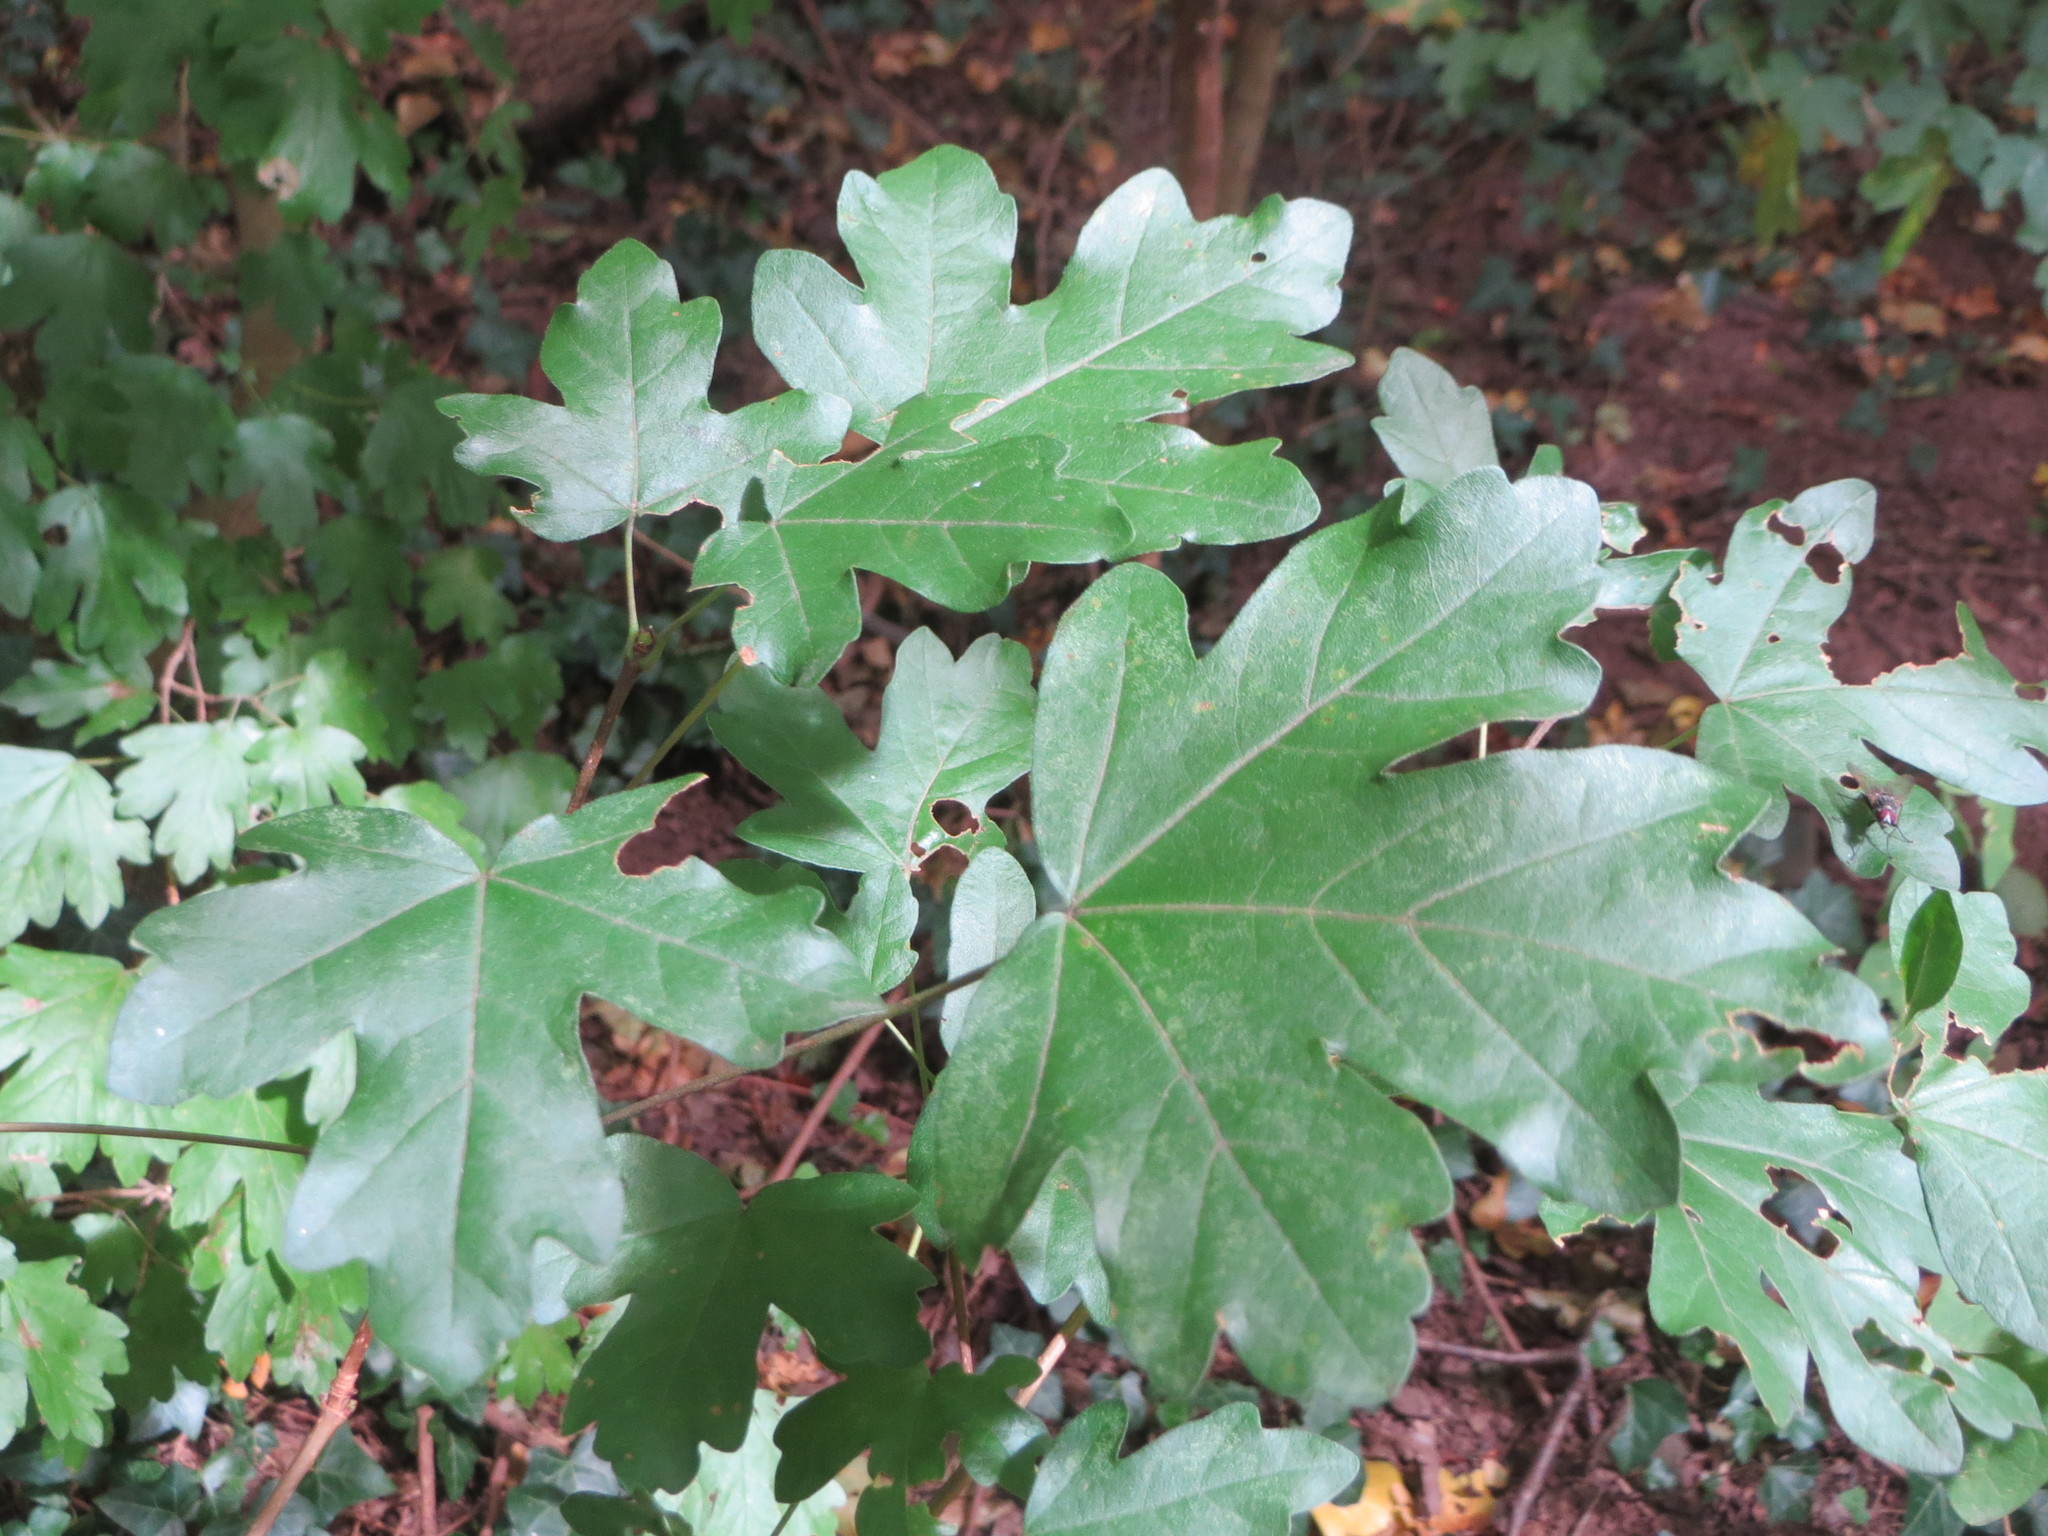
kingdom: Plantae
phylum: Tracheophyta
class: Magnoliopsida
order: Sapindales
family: Sapindaceae
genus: Acer
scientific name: Acer campestre
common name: Field maple
